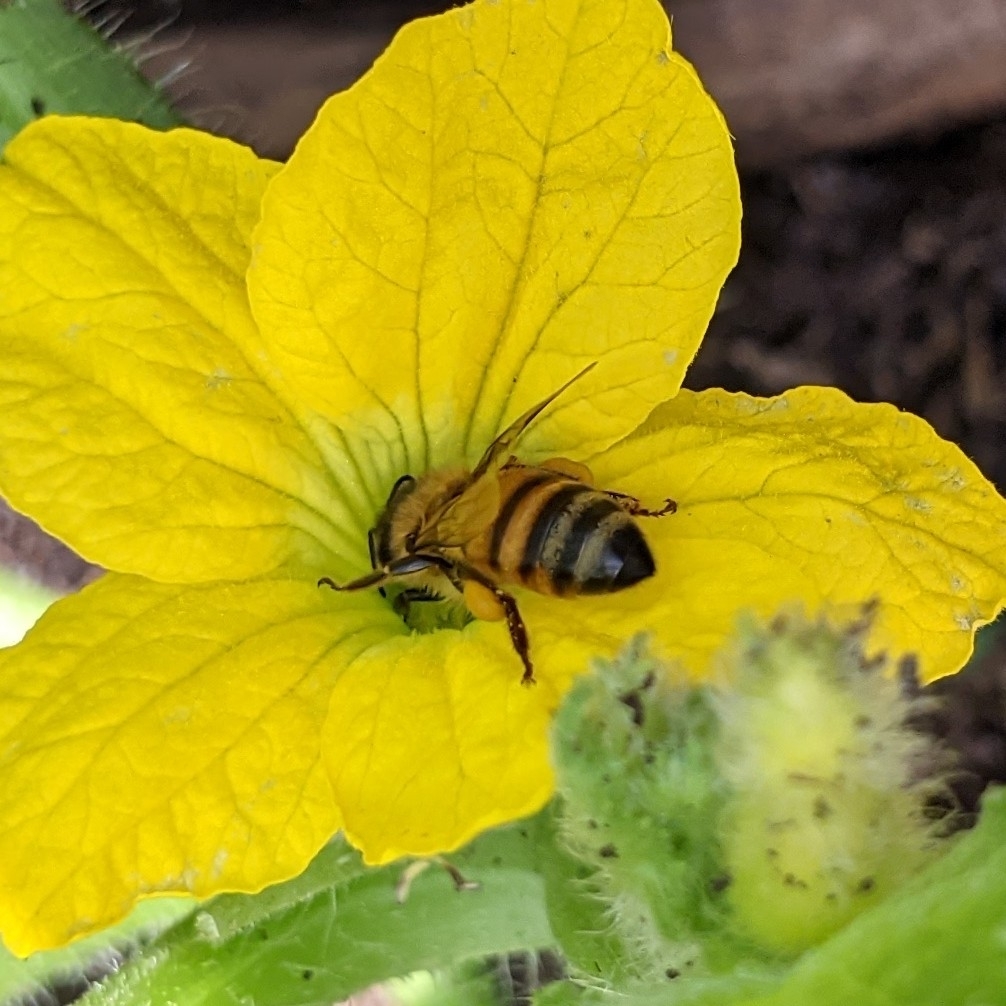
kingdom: Animalia
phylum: Arthropoda
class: Insecta
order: Hymenoptera
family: Apidae
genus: Apis
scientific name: Apis mellifera
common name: Honey bee
